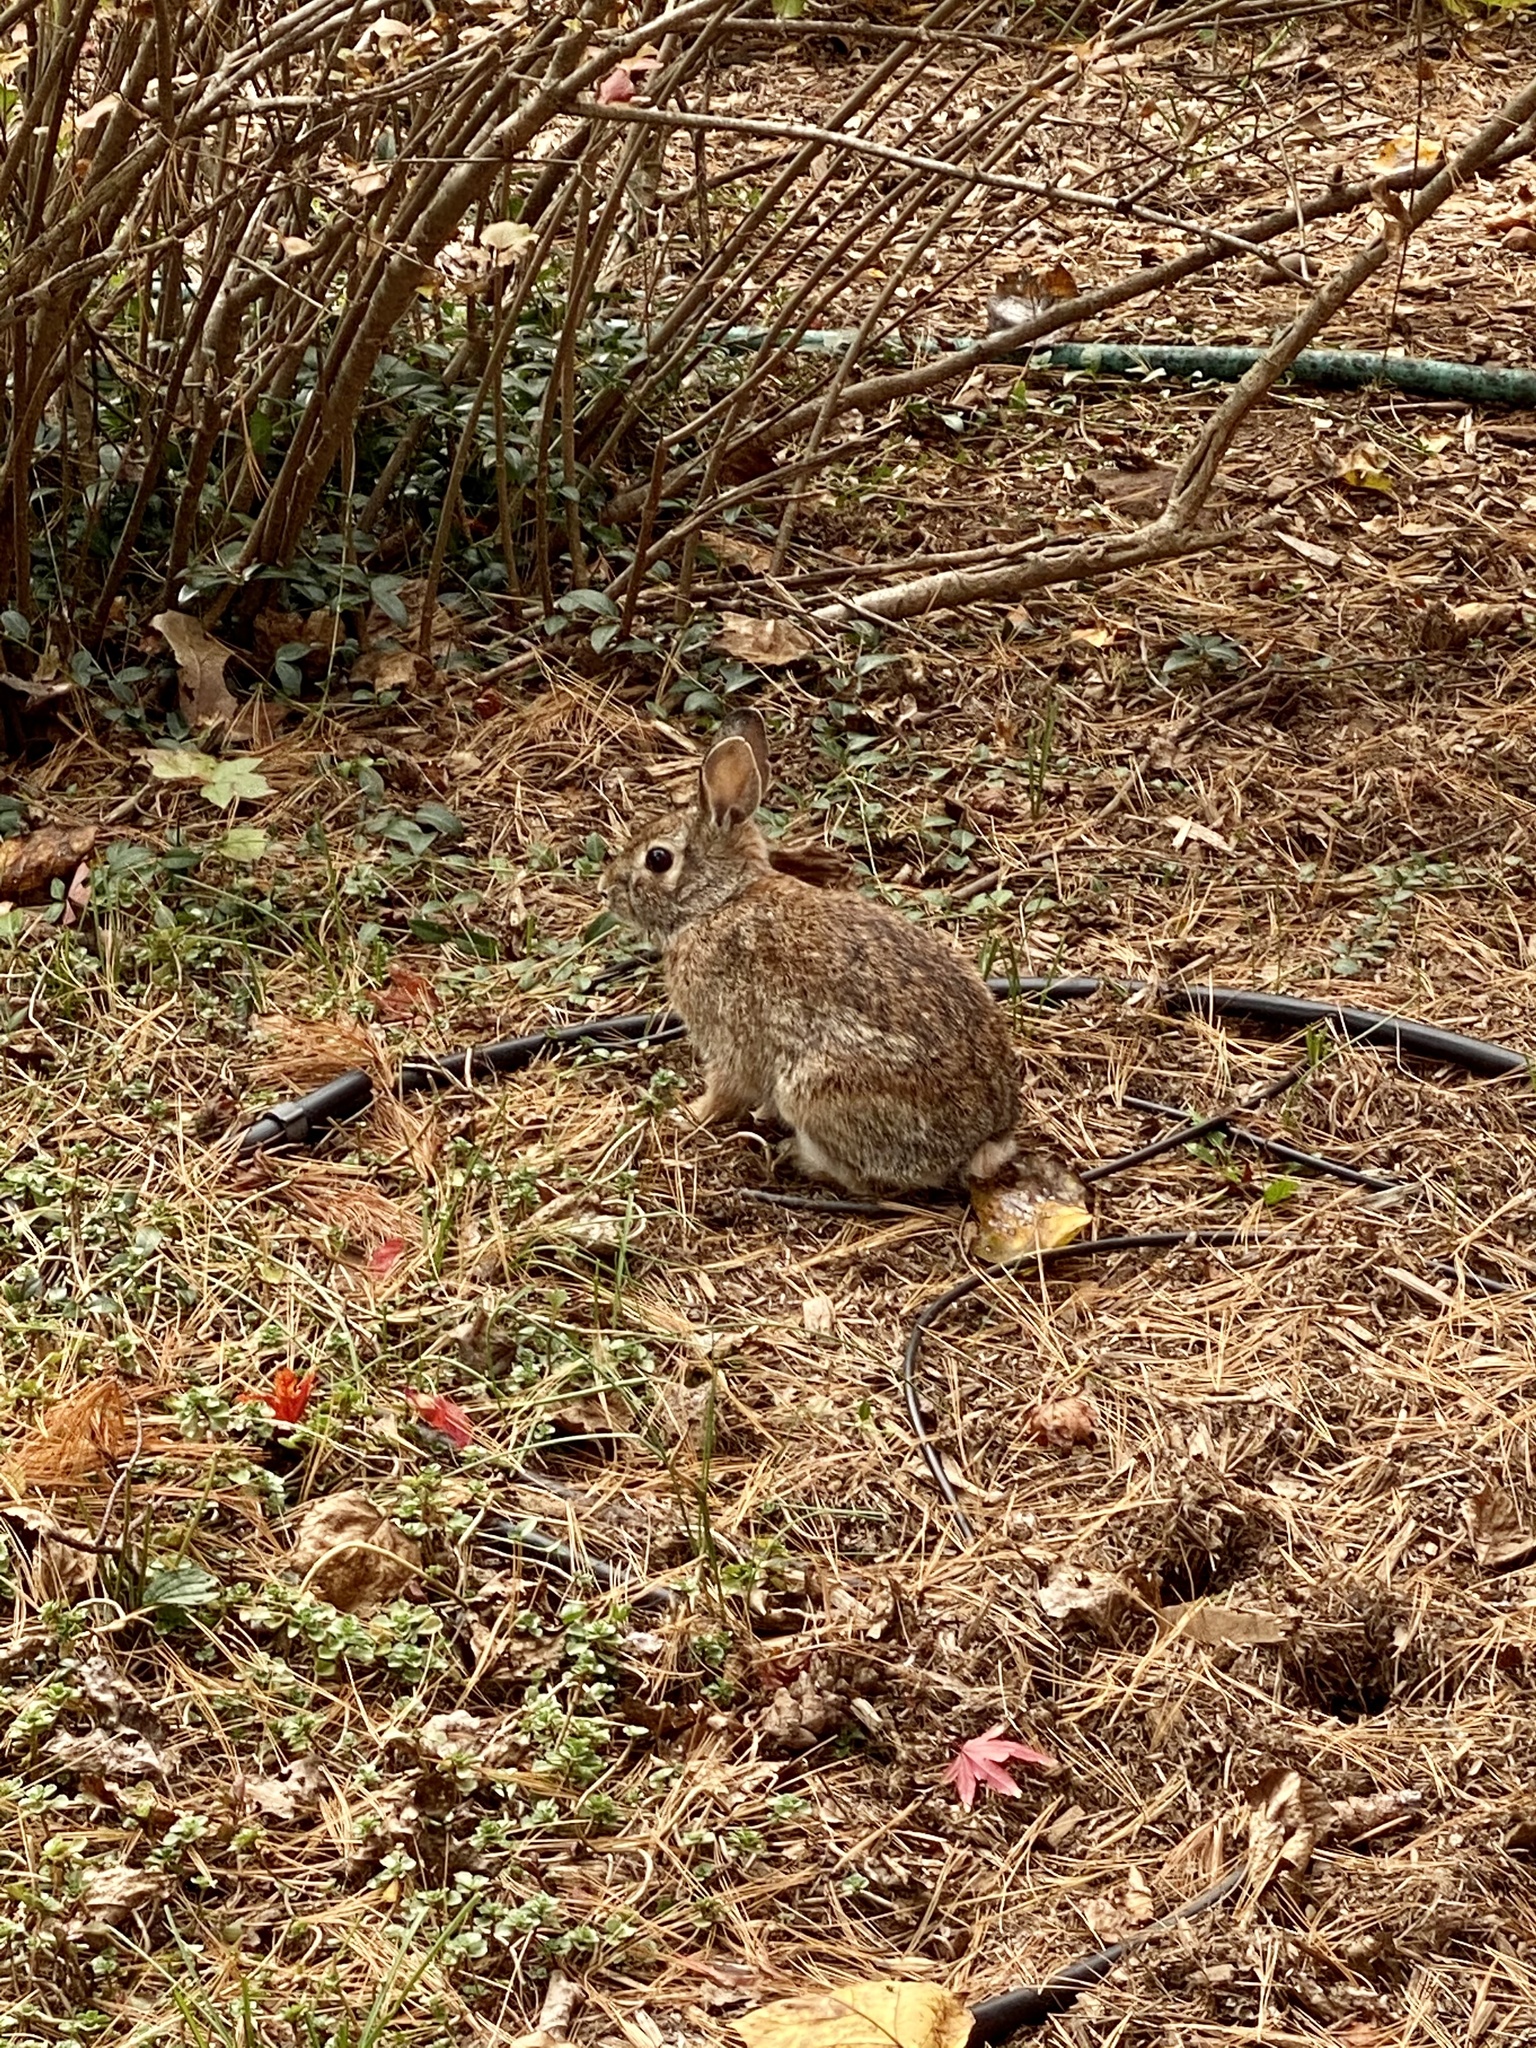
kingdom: Animalia
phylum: Chordata
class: Mammalia
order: Lagomorpha
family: Leporidae
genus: Sylvilagus
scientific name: Sylvilagus floridanus
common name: Eastern cottontail
